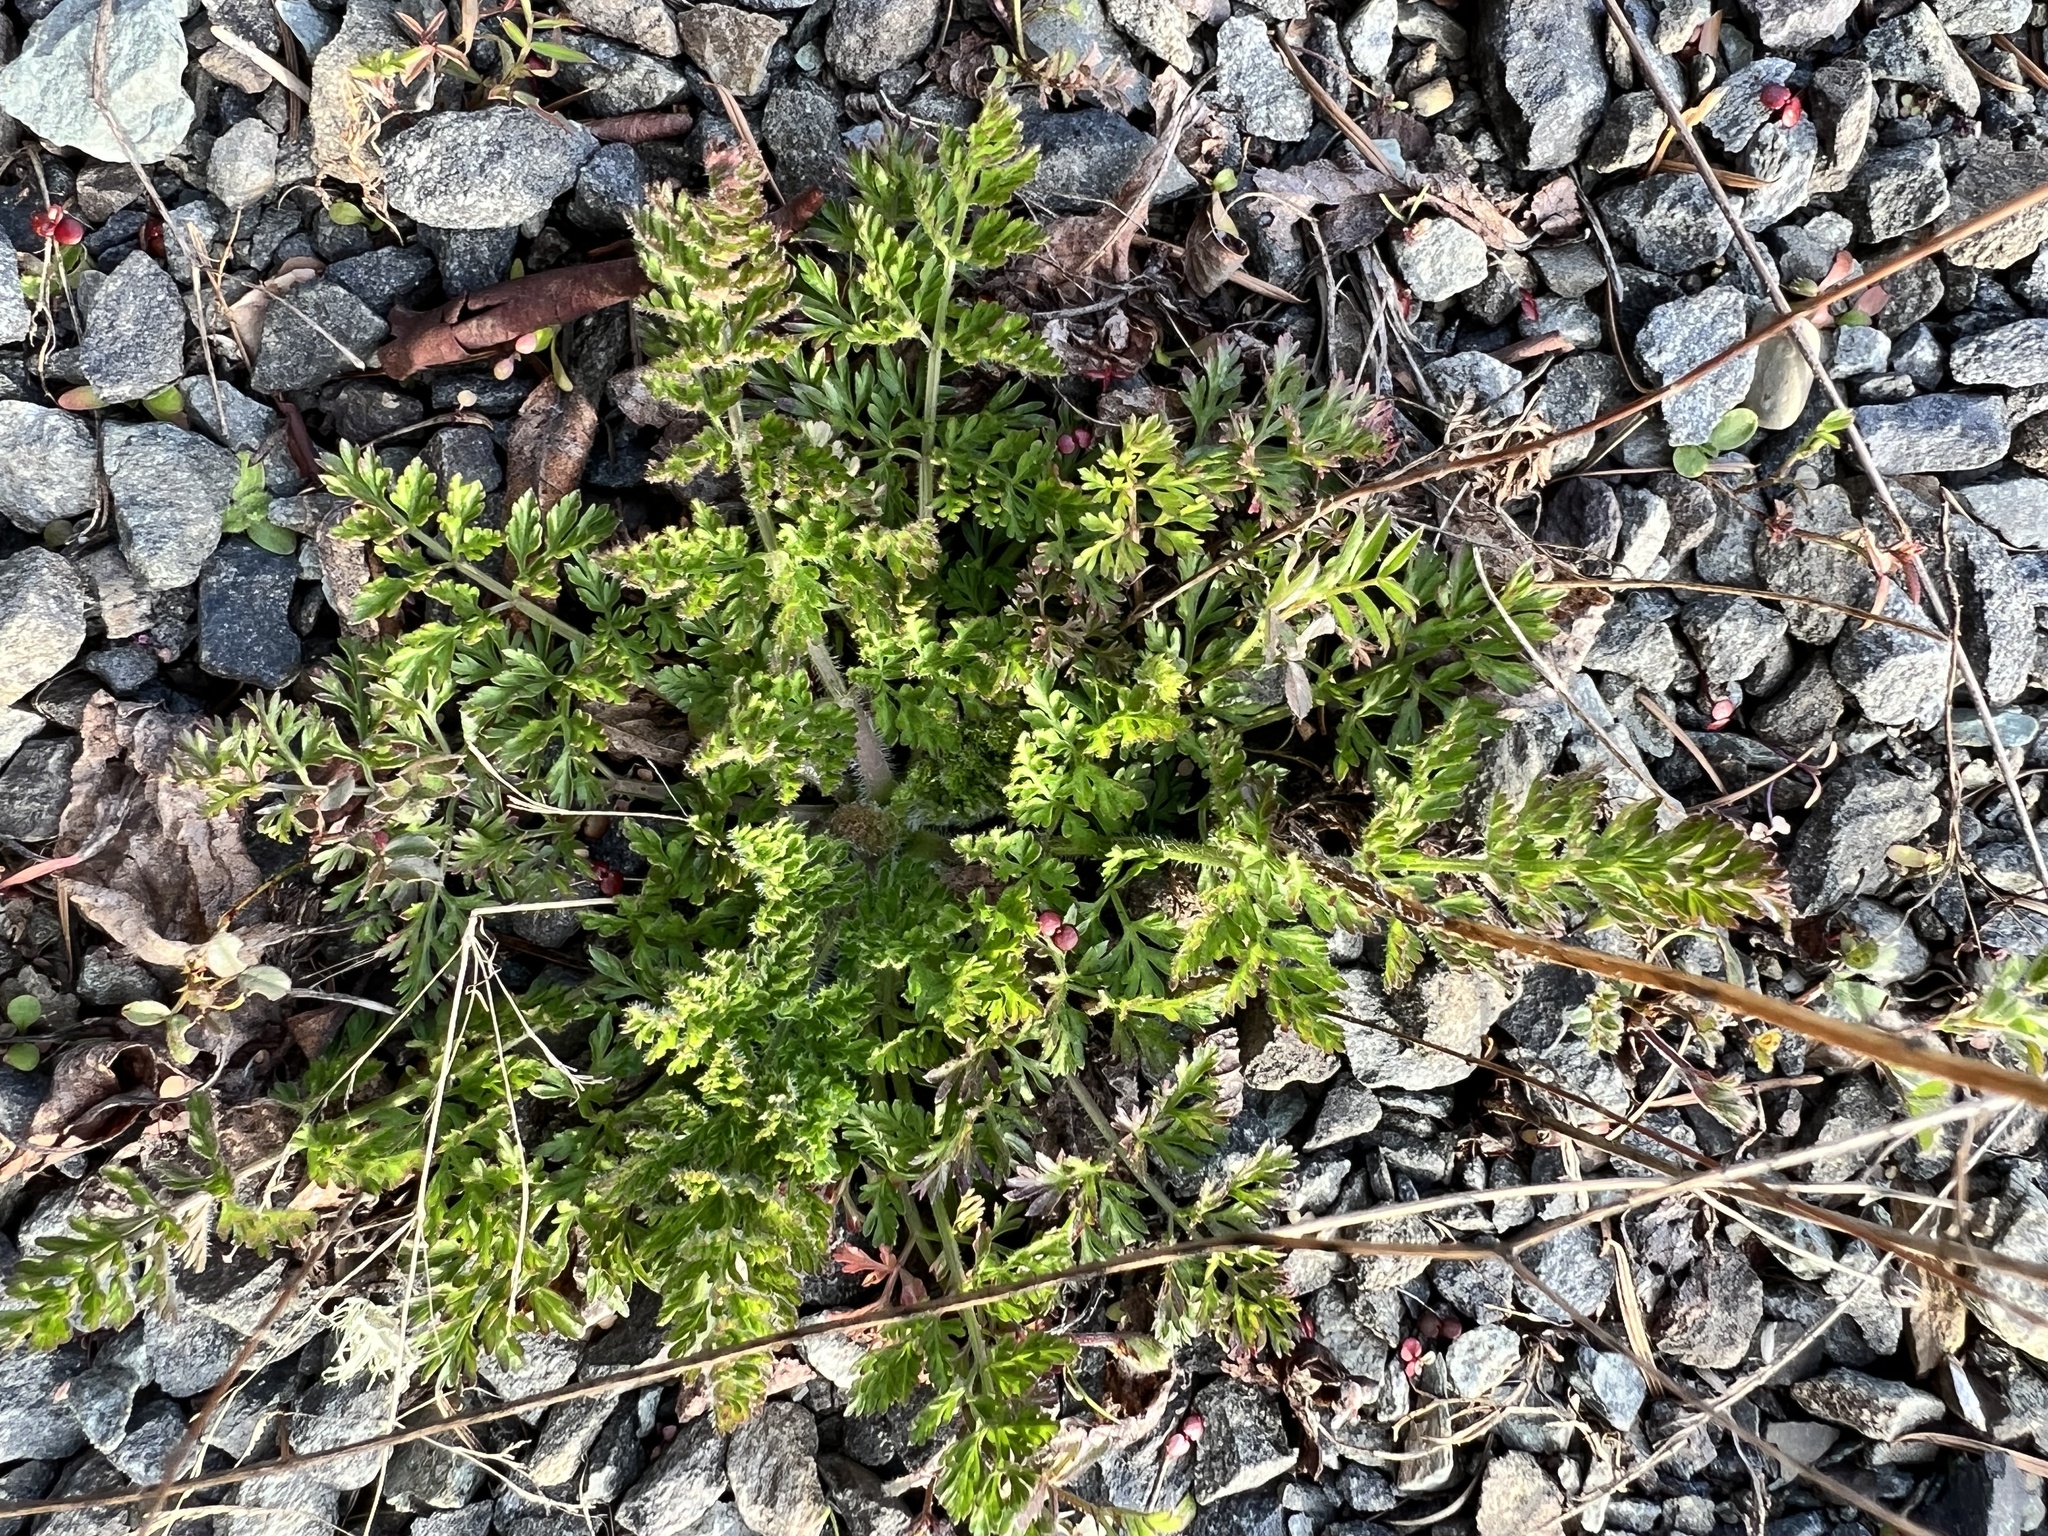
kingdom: Plantae
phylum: Tracheophyta
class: Magnoliopsida
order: Apiales
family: Apiaceae
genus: Daucus
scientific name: Daucus carota
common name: Wild carrot
